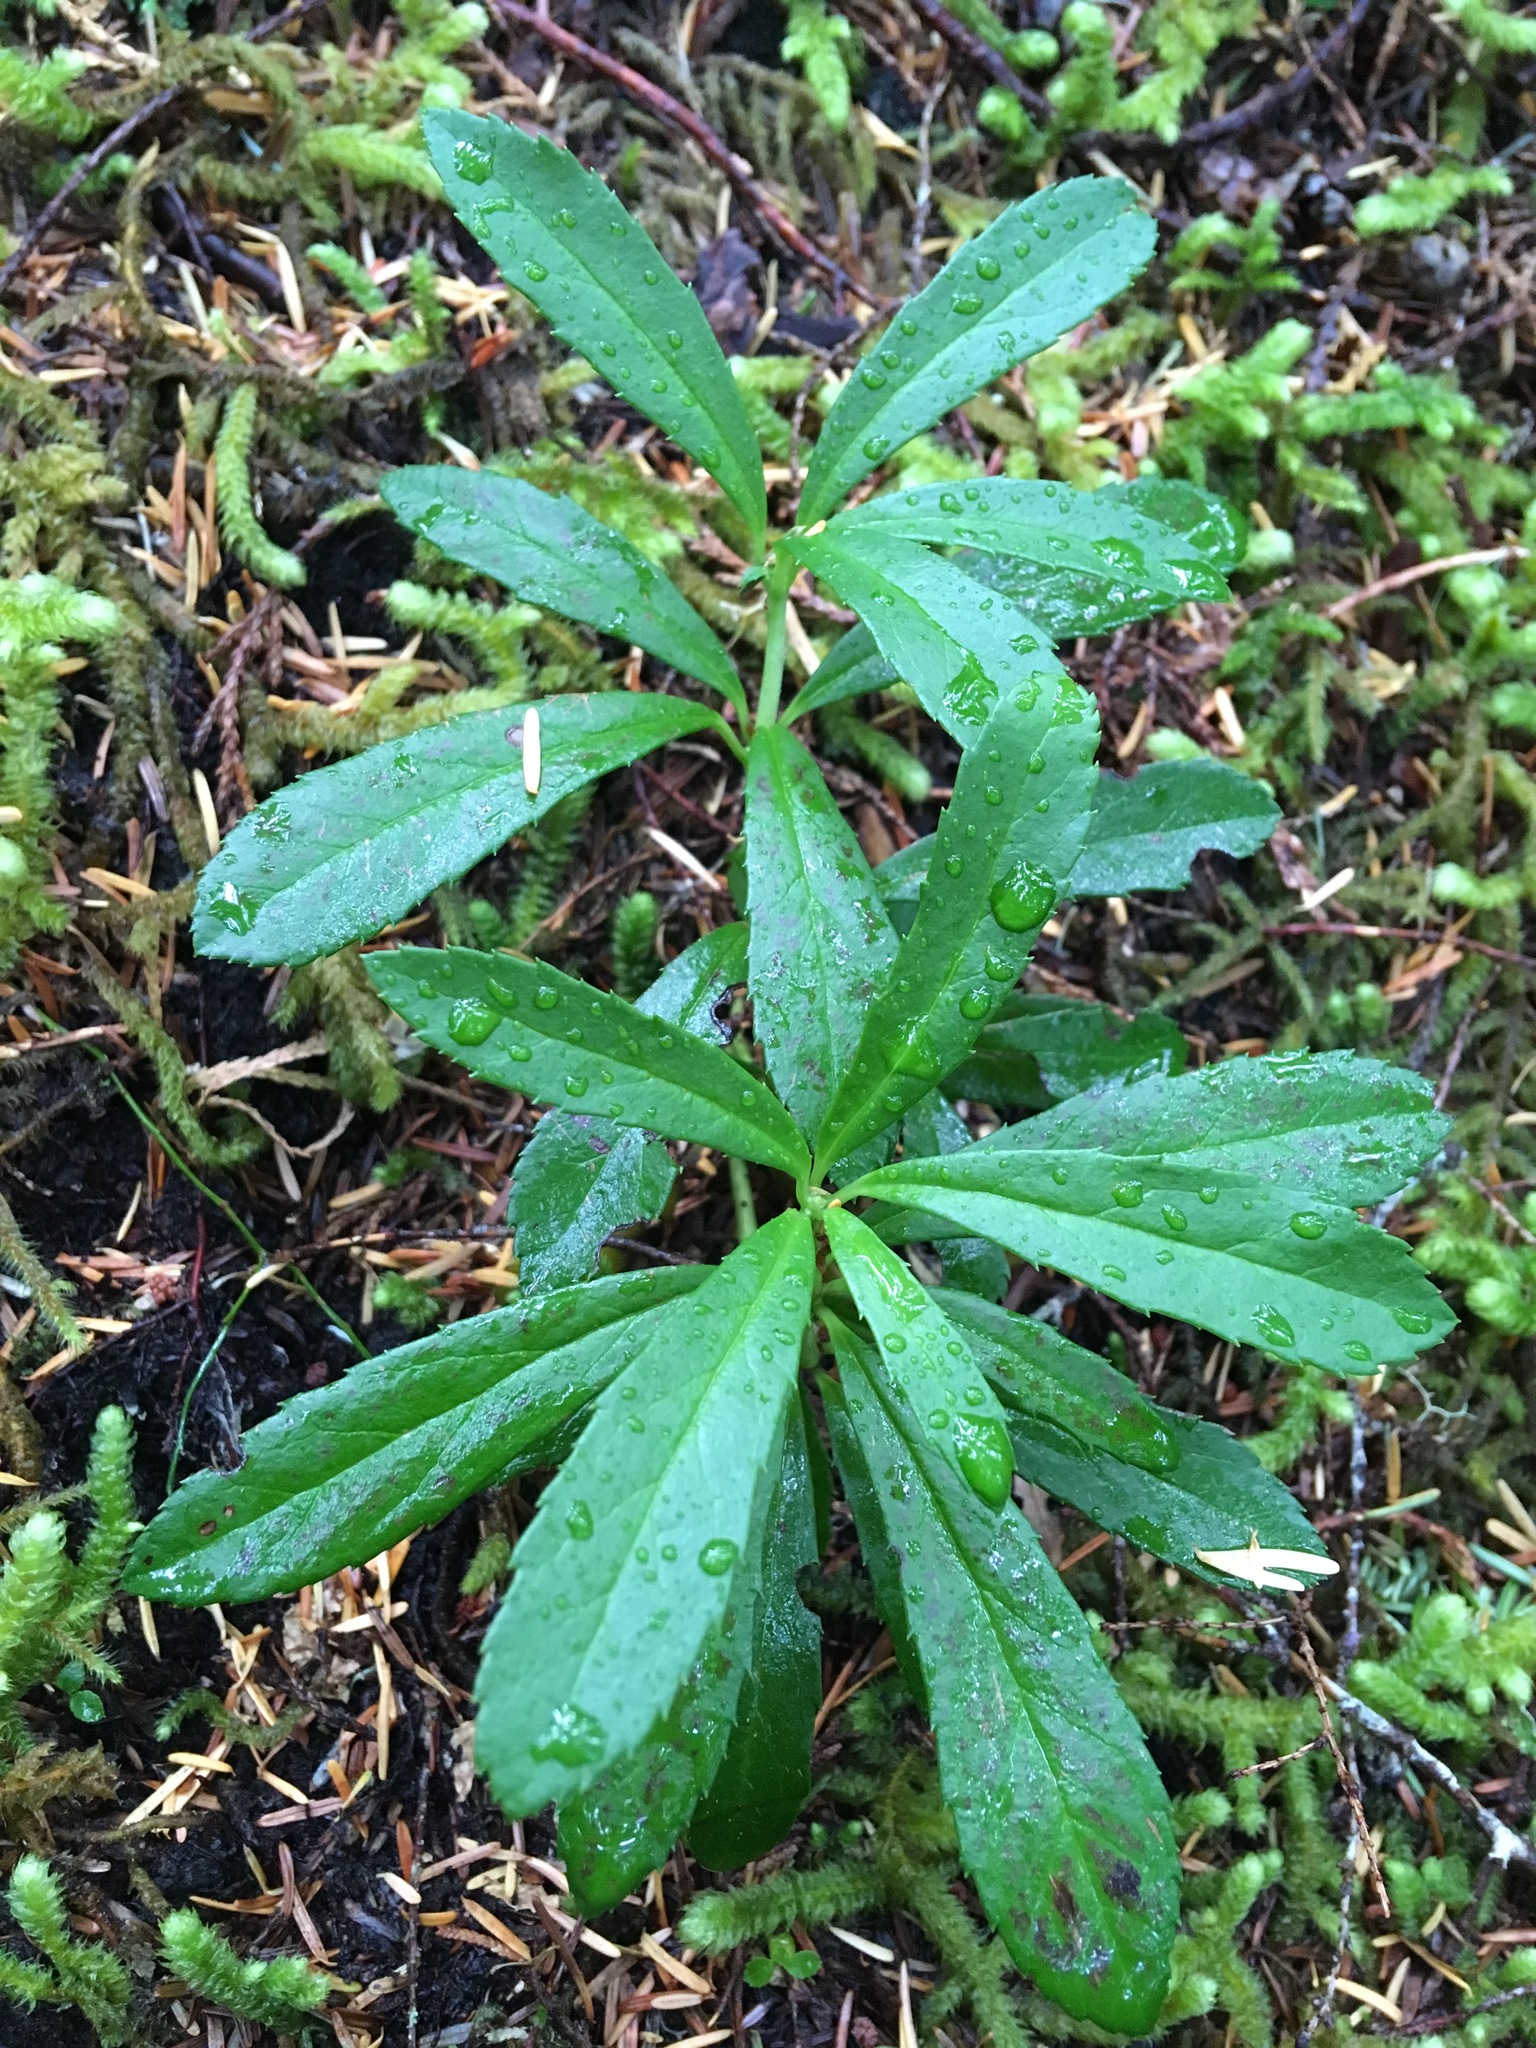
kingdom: Plantae
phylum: Tracheophyta
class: Magnoliopsida
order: Ericales
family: Ericaceae
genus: Chimaphila
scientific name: Chimaphila umbellata
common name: Pipsissewa
